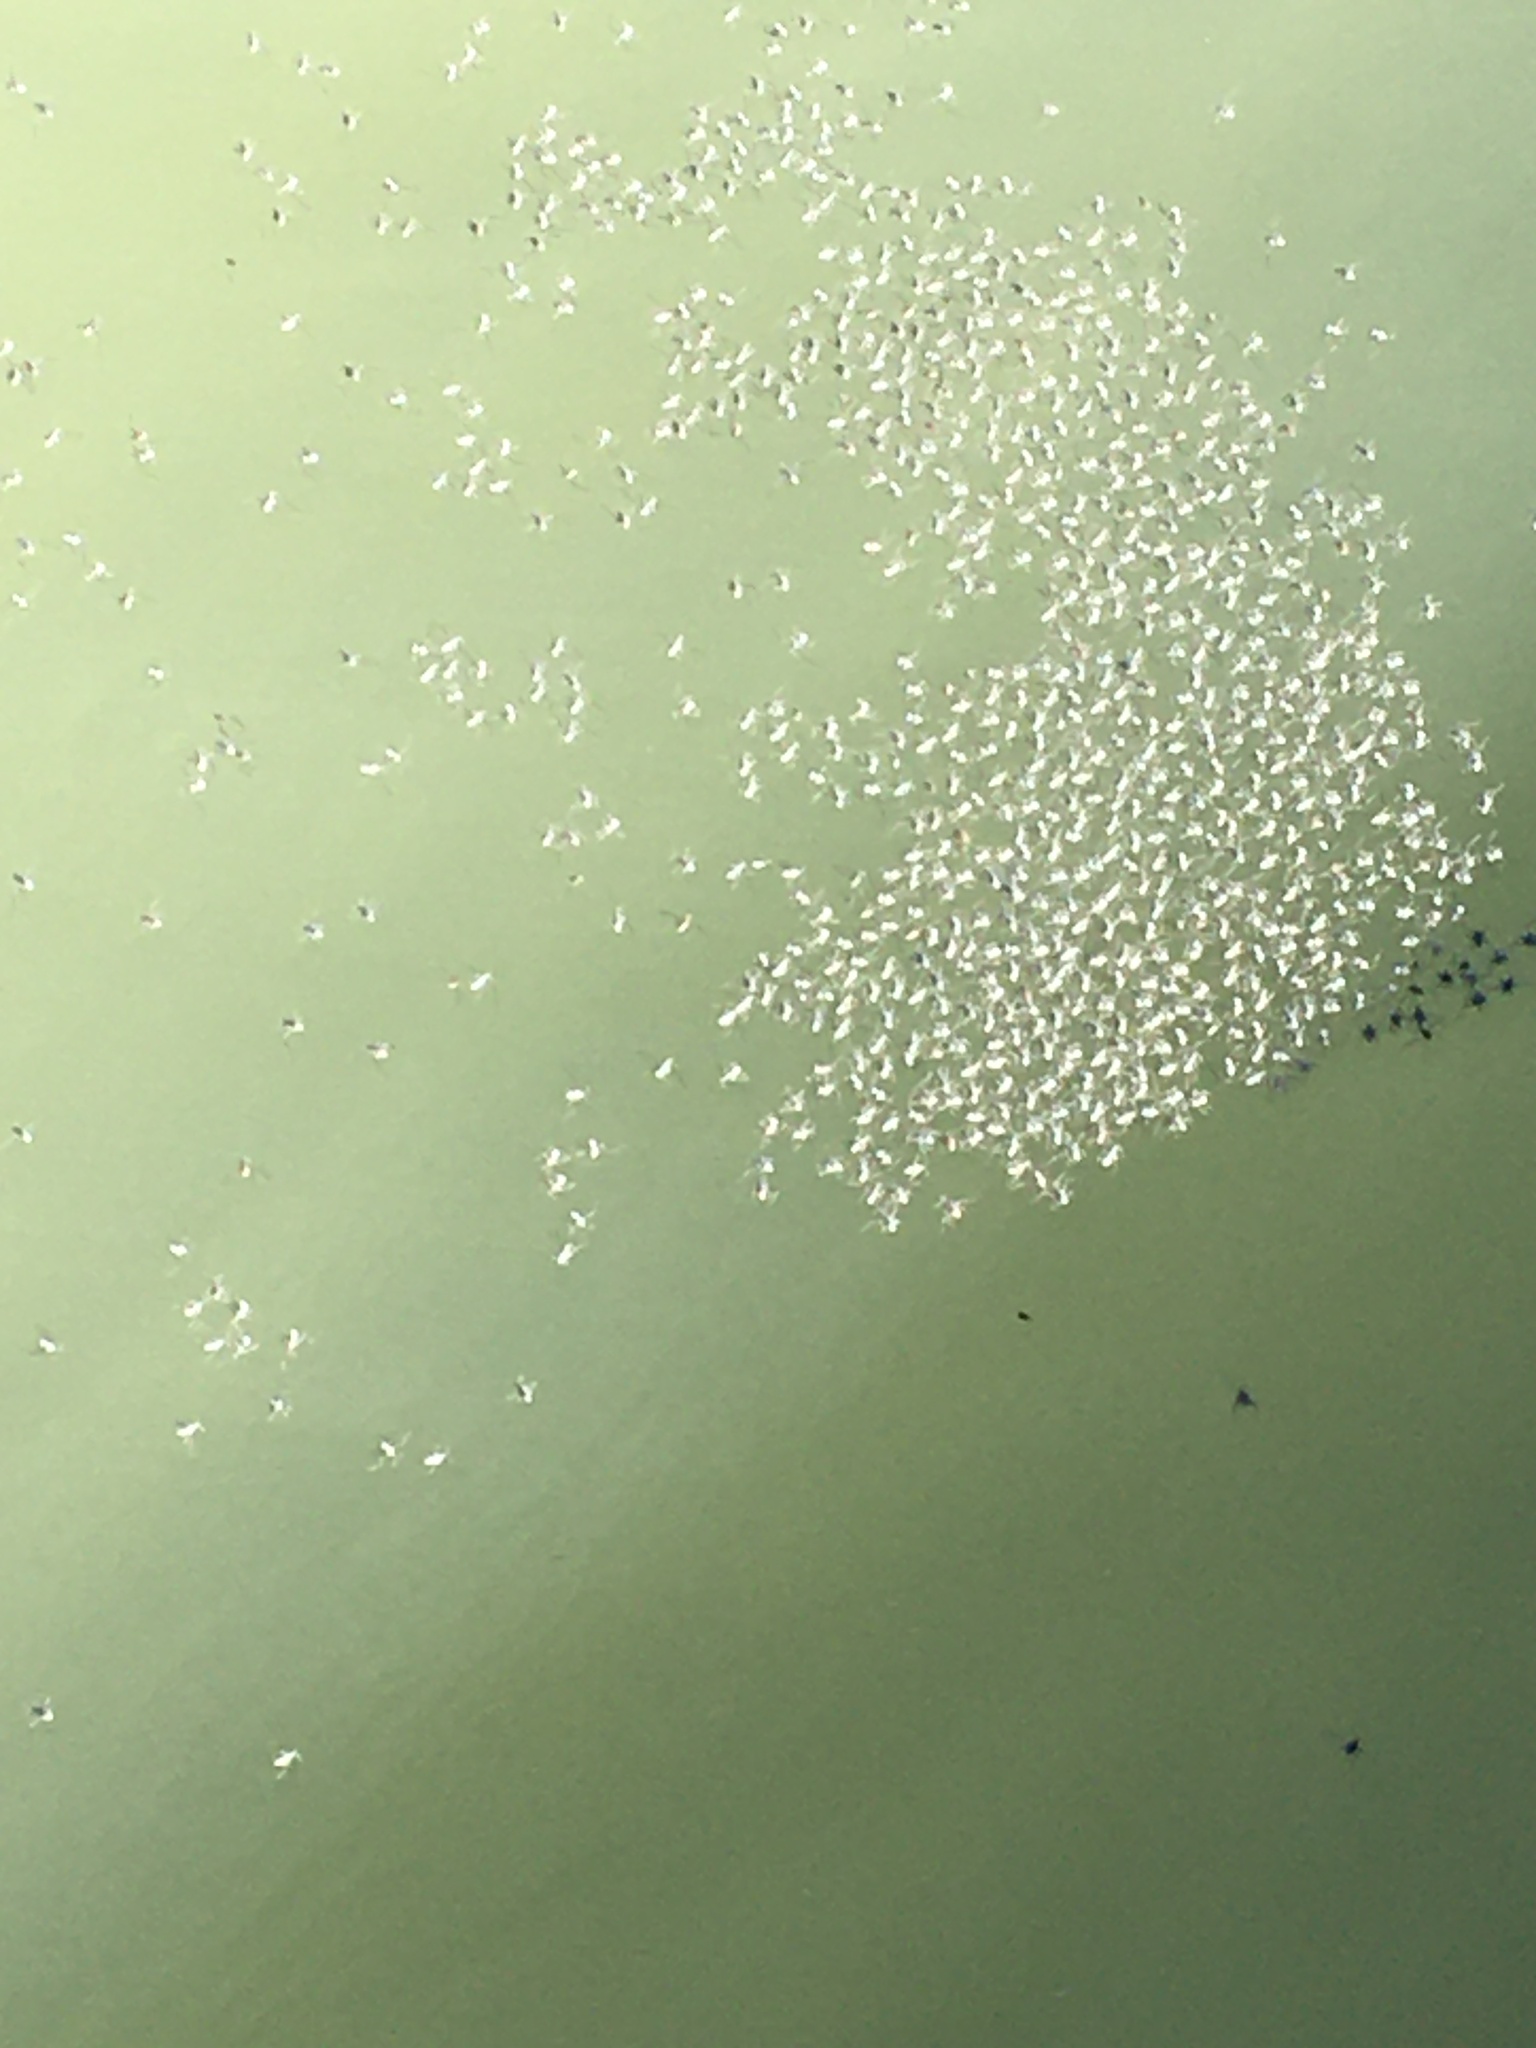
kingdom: Animalia
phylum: Arthropoda
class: Insecta
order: Hemiptera
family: Veliidae
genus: Rhagovelia
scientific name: Rhagovelia plumbea
